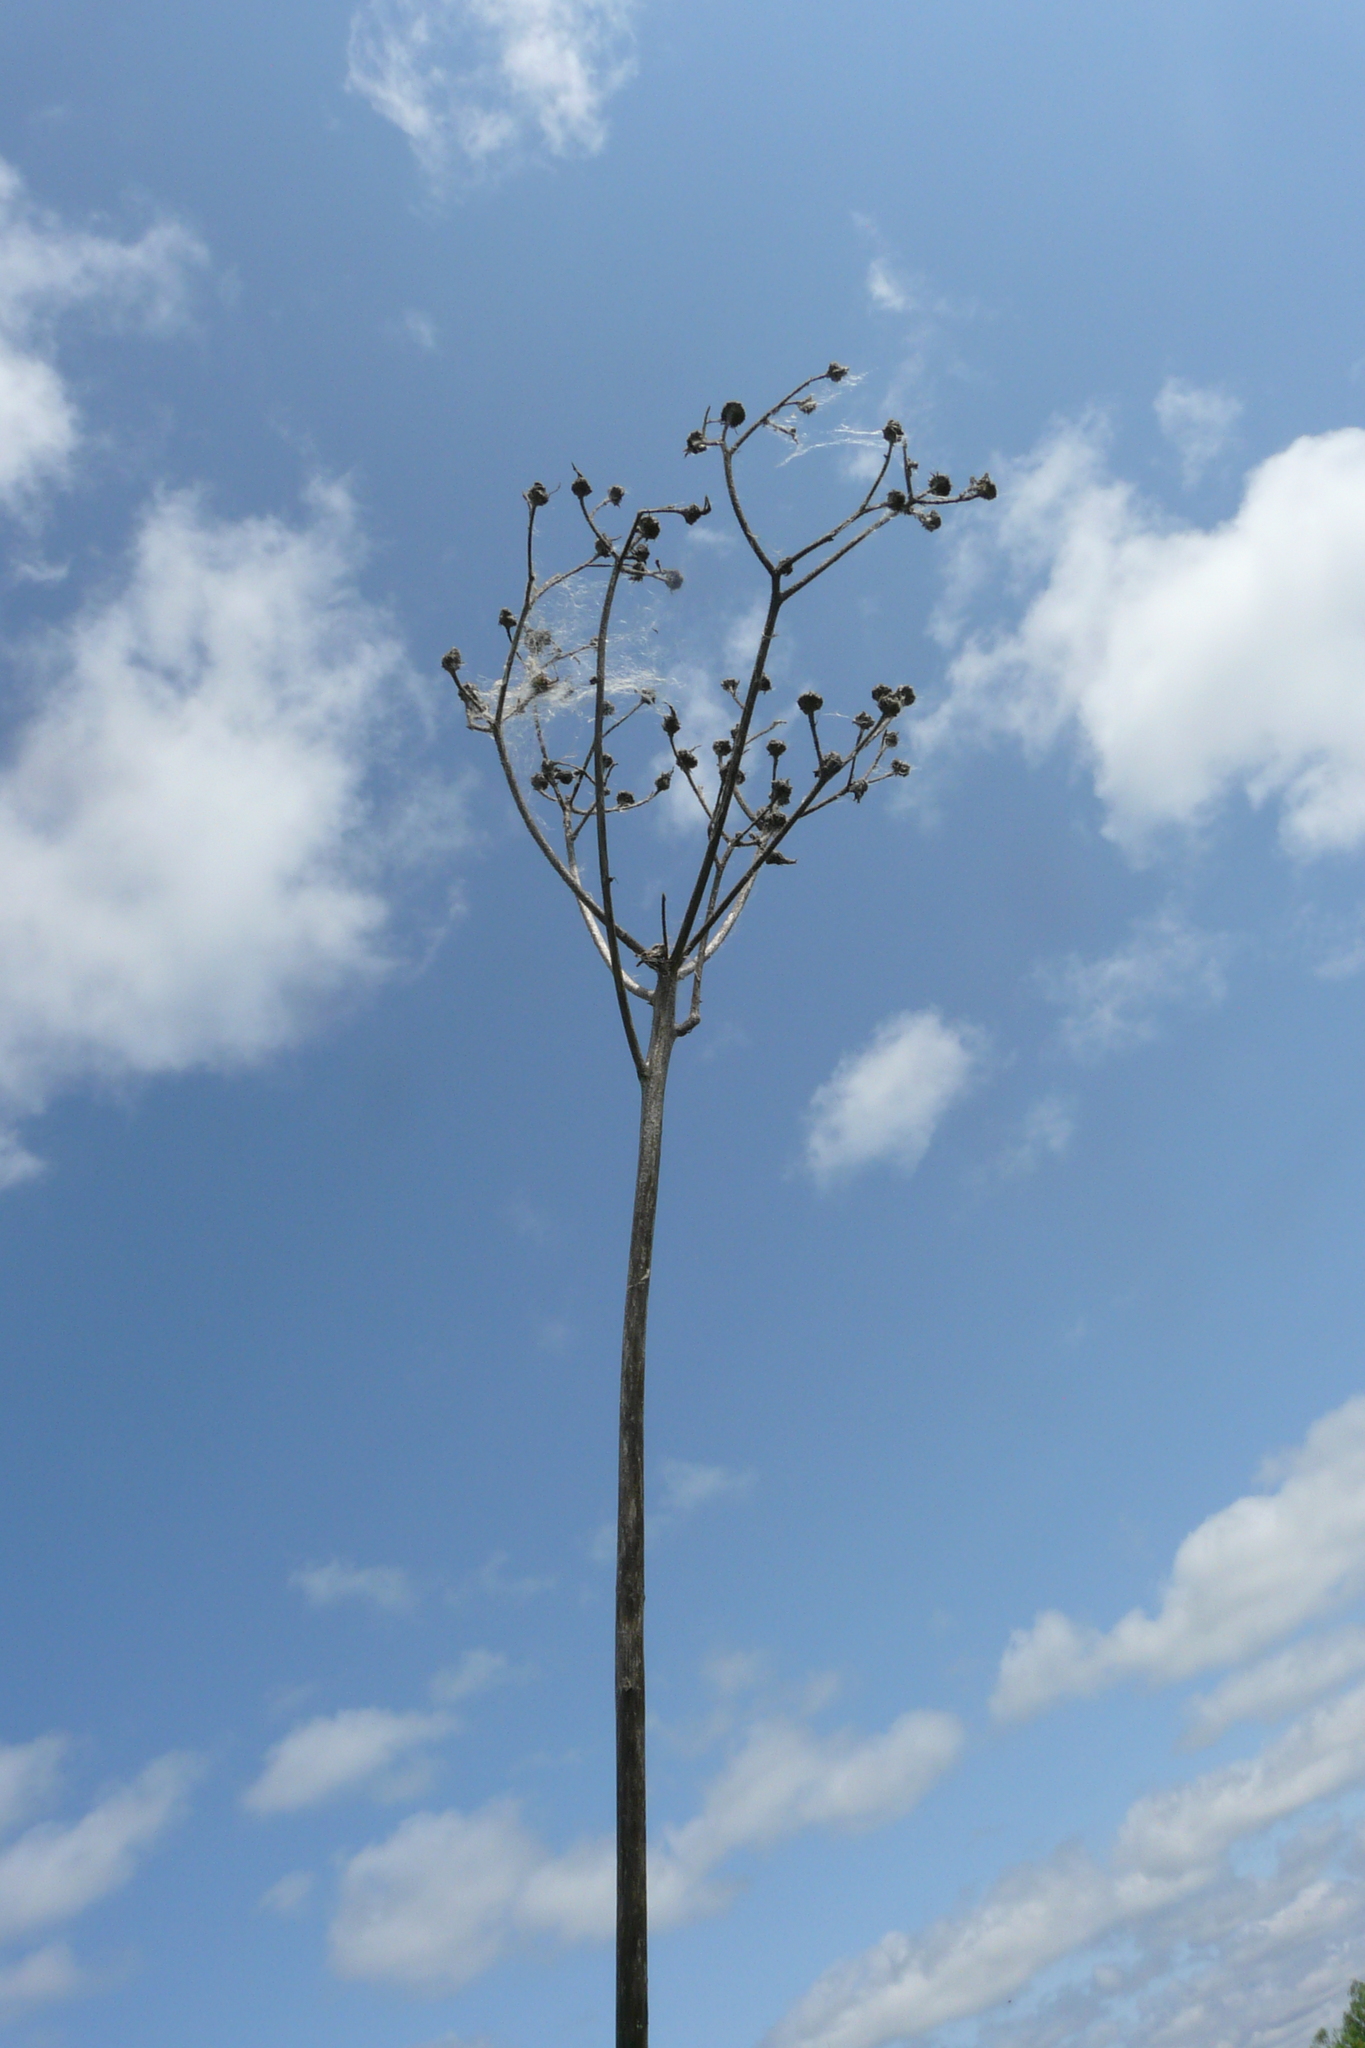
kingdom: Plantae
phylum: Tracheophyta
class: Magnoliopsida
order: Asterales
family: Asteraceae
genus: Sonchus
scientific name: Sonchus palustris
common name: Marsh sow-thistle
